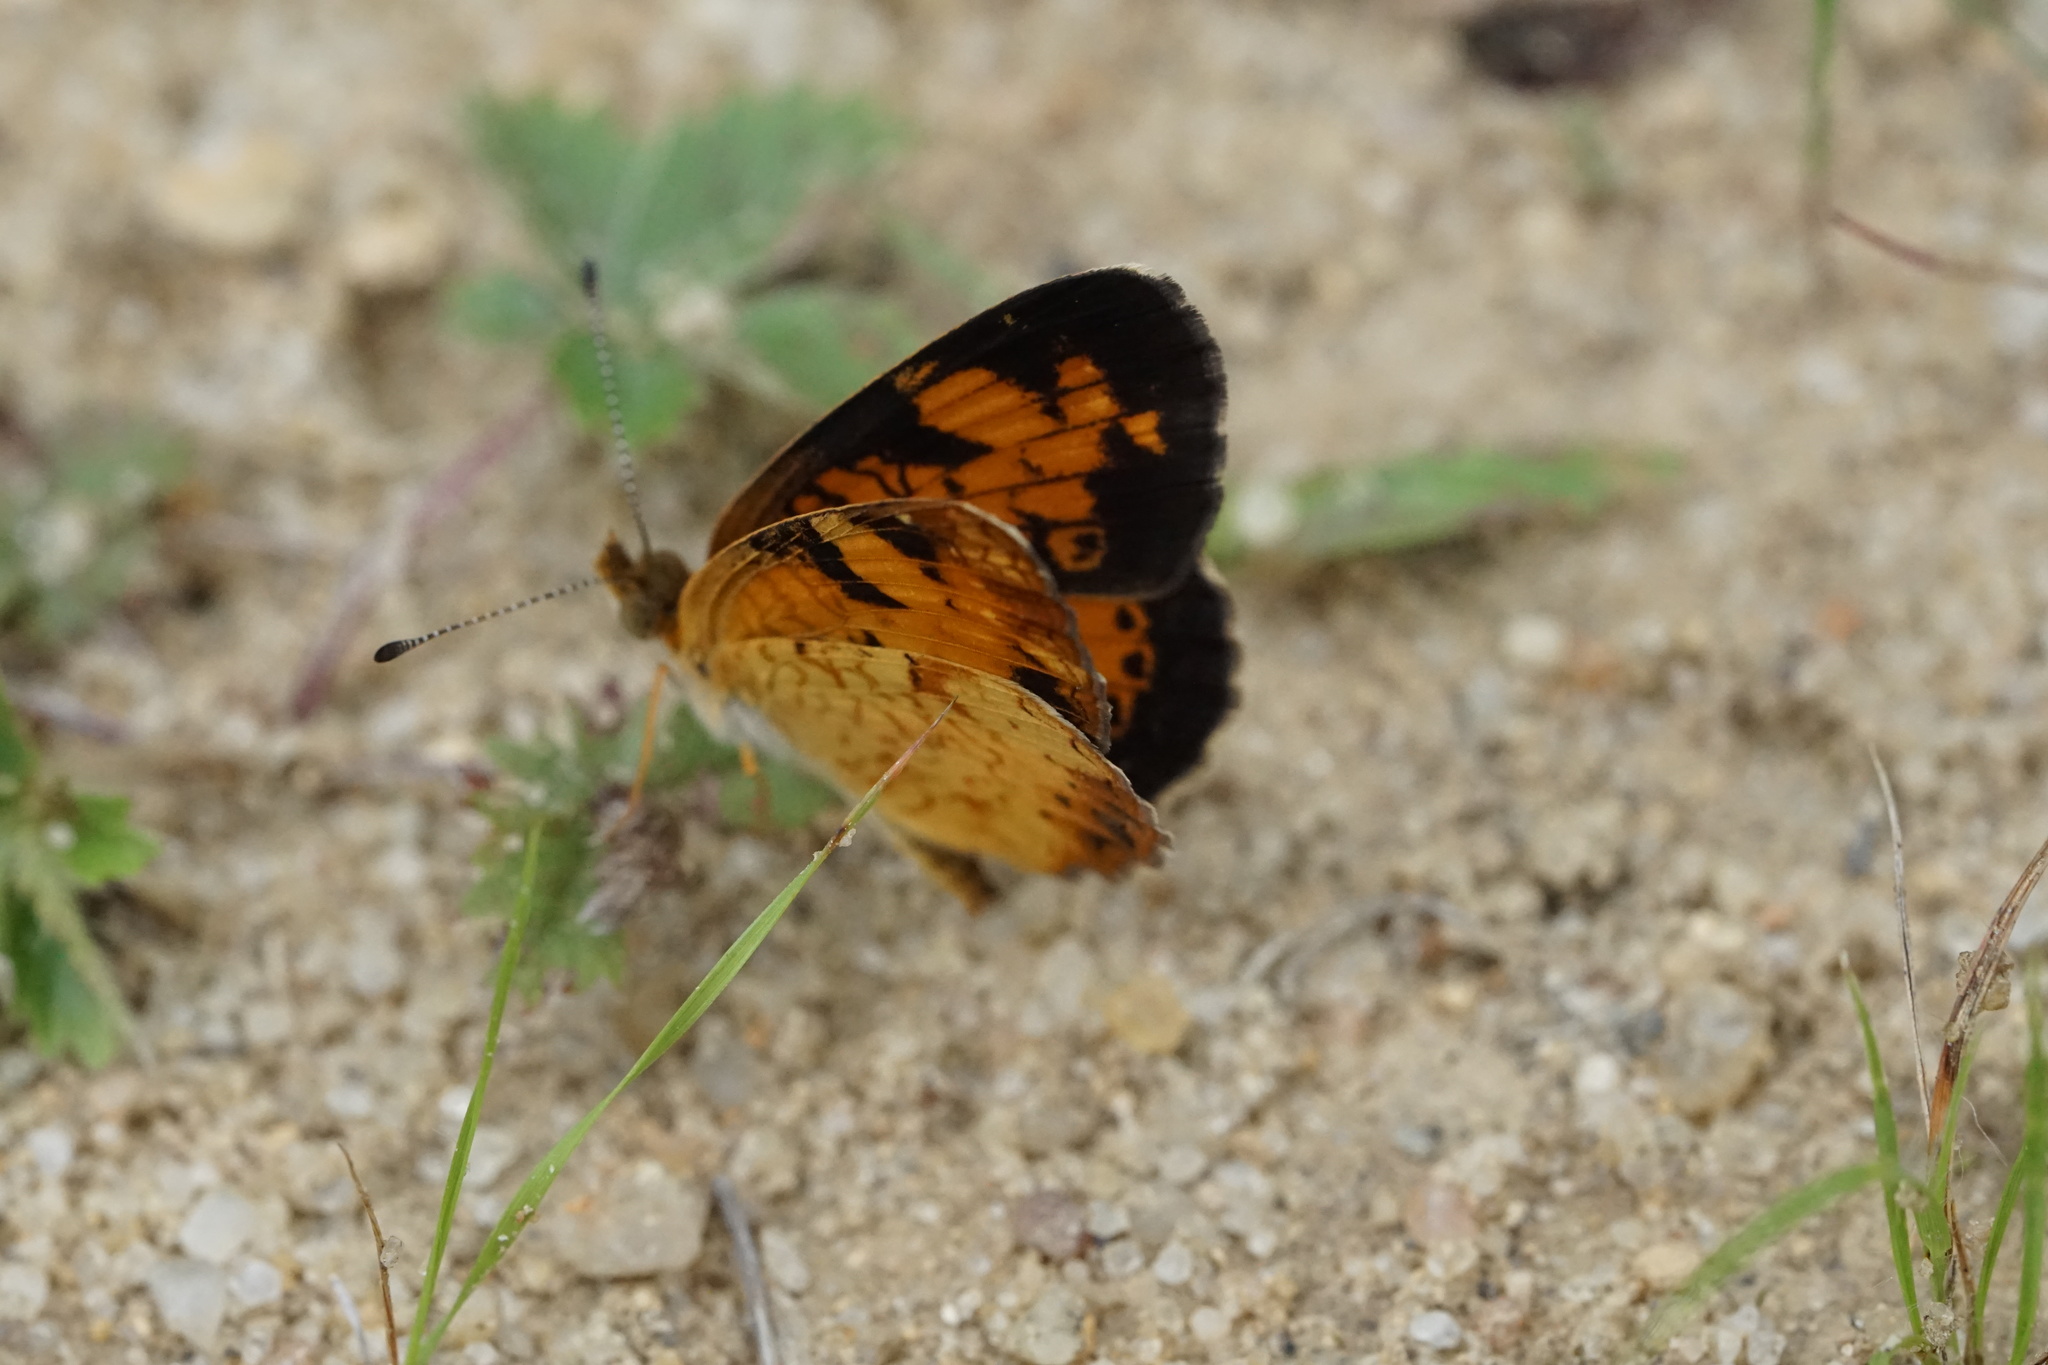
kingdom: Animalia
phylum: Arthropoda
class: Insecta
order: Lepidoptera
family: Nymphalidae
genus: Phyciodes
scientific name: Phyciodes tharos
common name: Pearl crescent
